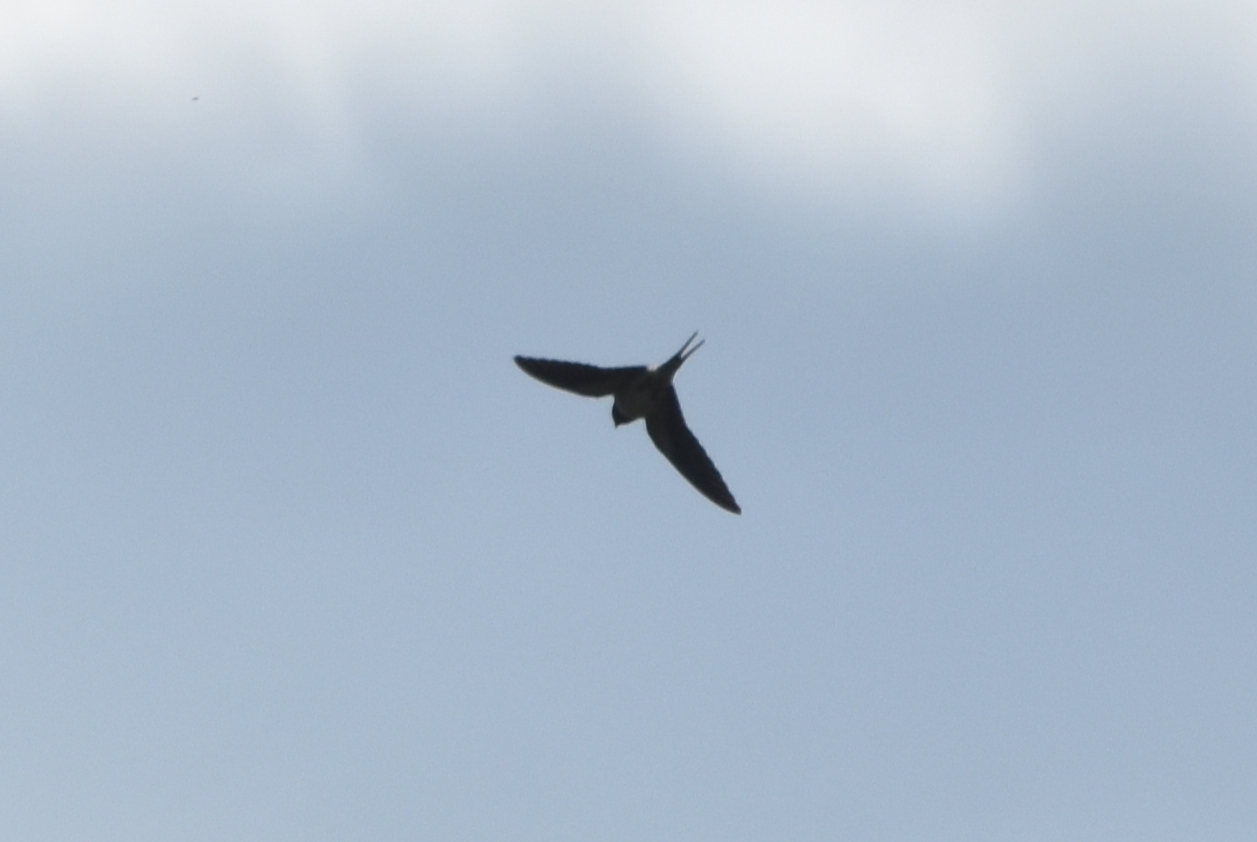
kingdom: Animalia
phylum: Chordata
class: Aves
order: Passeriformes
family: Hirundinidae
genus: Hirundo
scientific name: Hirundo rustica
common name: Barn swallow
